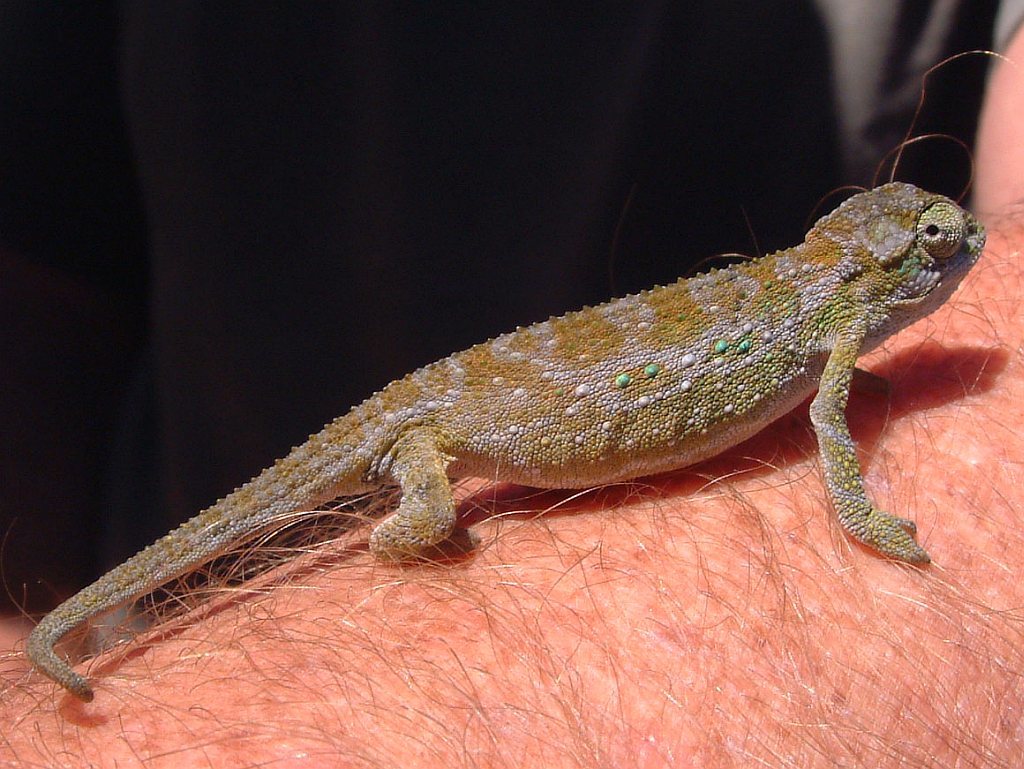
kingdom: Animalia
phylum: Chordata
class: Squamata
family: Chamaeleonidae
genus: Bradypodion
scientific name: Bradypodion pumilum
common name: Cape dwarf chameleon
